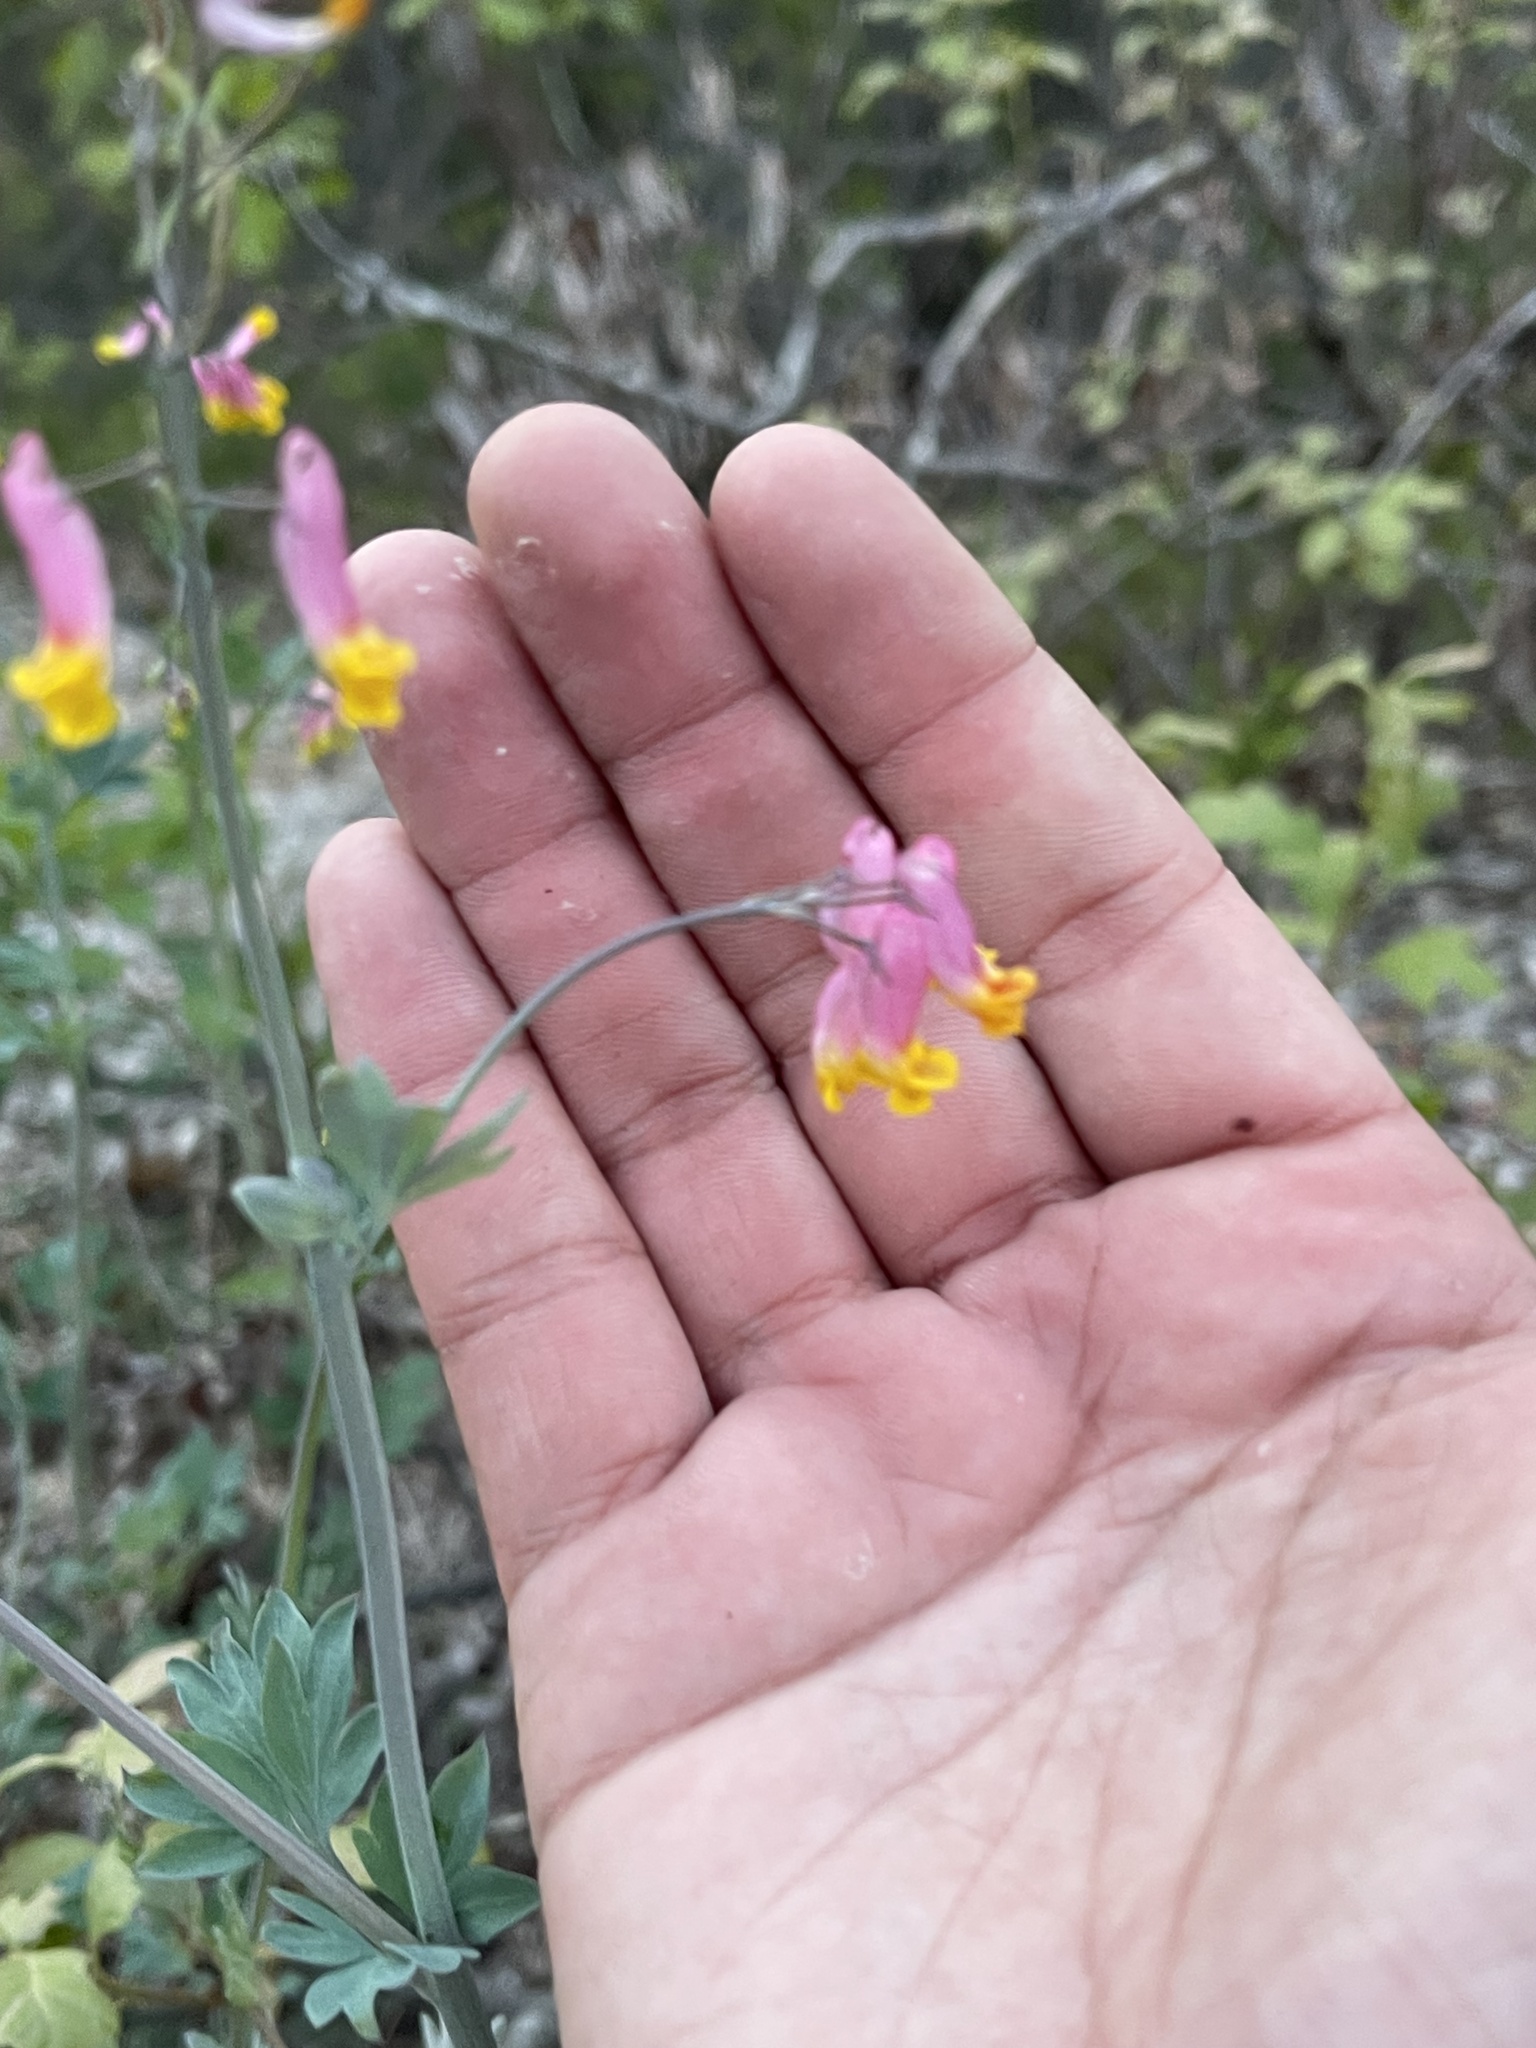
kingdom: Plantae
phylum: Tracheophyta
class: Magnoliopsida
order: Ranunculales
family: Papaveraceae
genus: Capnoides
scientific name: Capnoides sempervirens
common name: Rock harlequin
